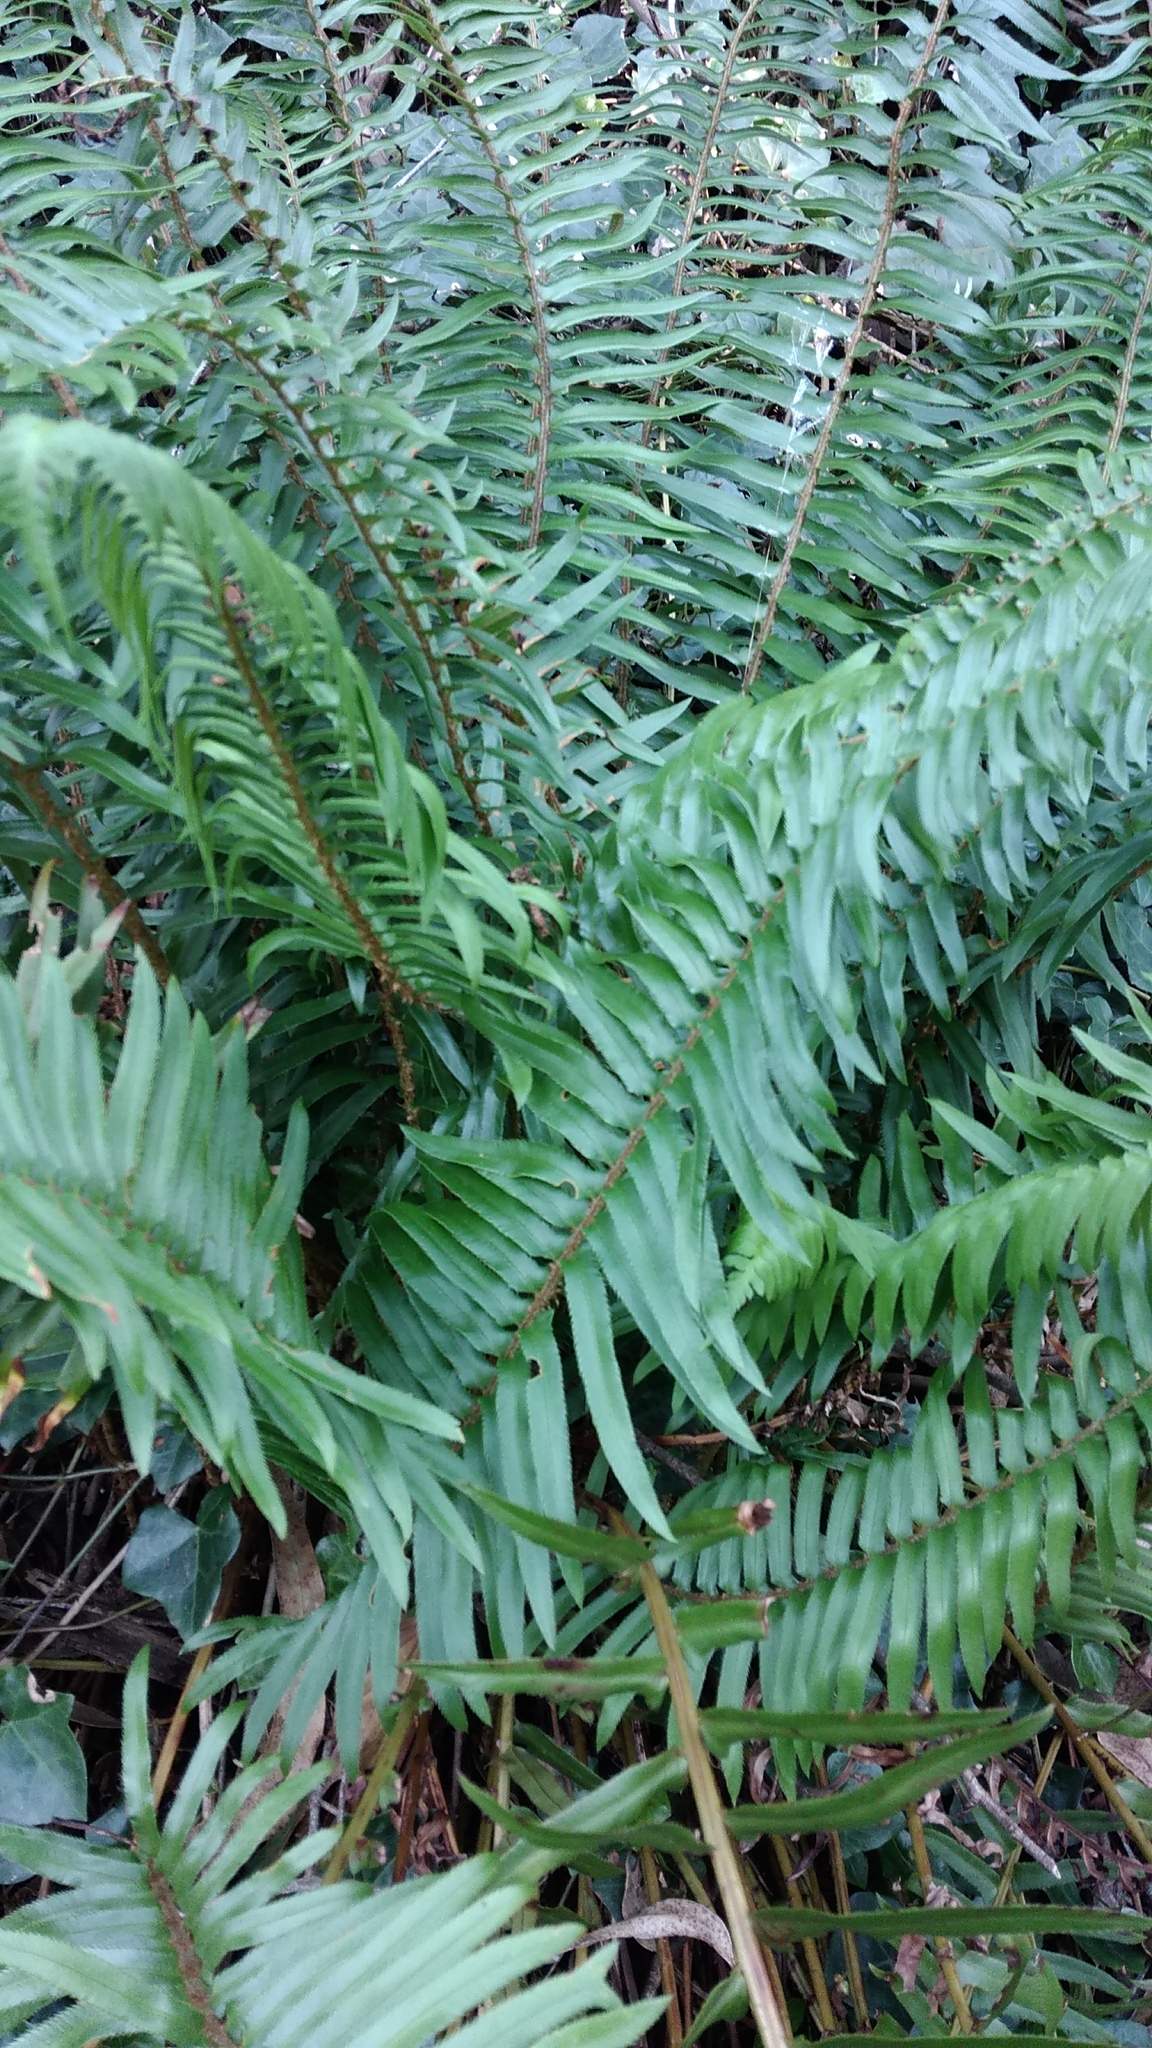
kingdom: Plantae
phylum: Tracheophyta
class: Polypodiopsida
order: Polypodiales
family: Dryopteridaceae
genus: Polystichum
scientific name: Polystichum munitum
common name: Western sword-fern
